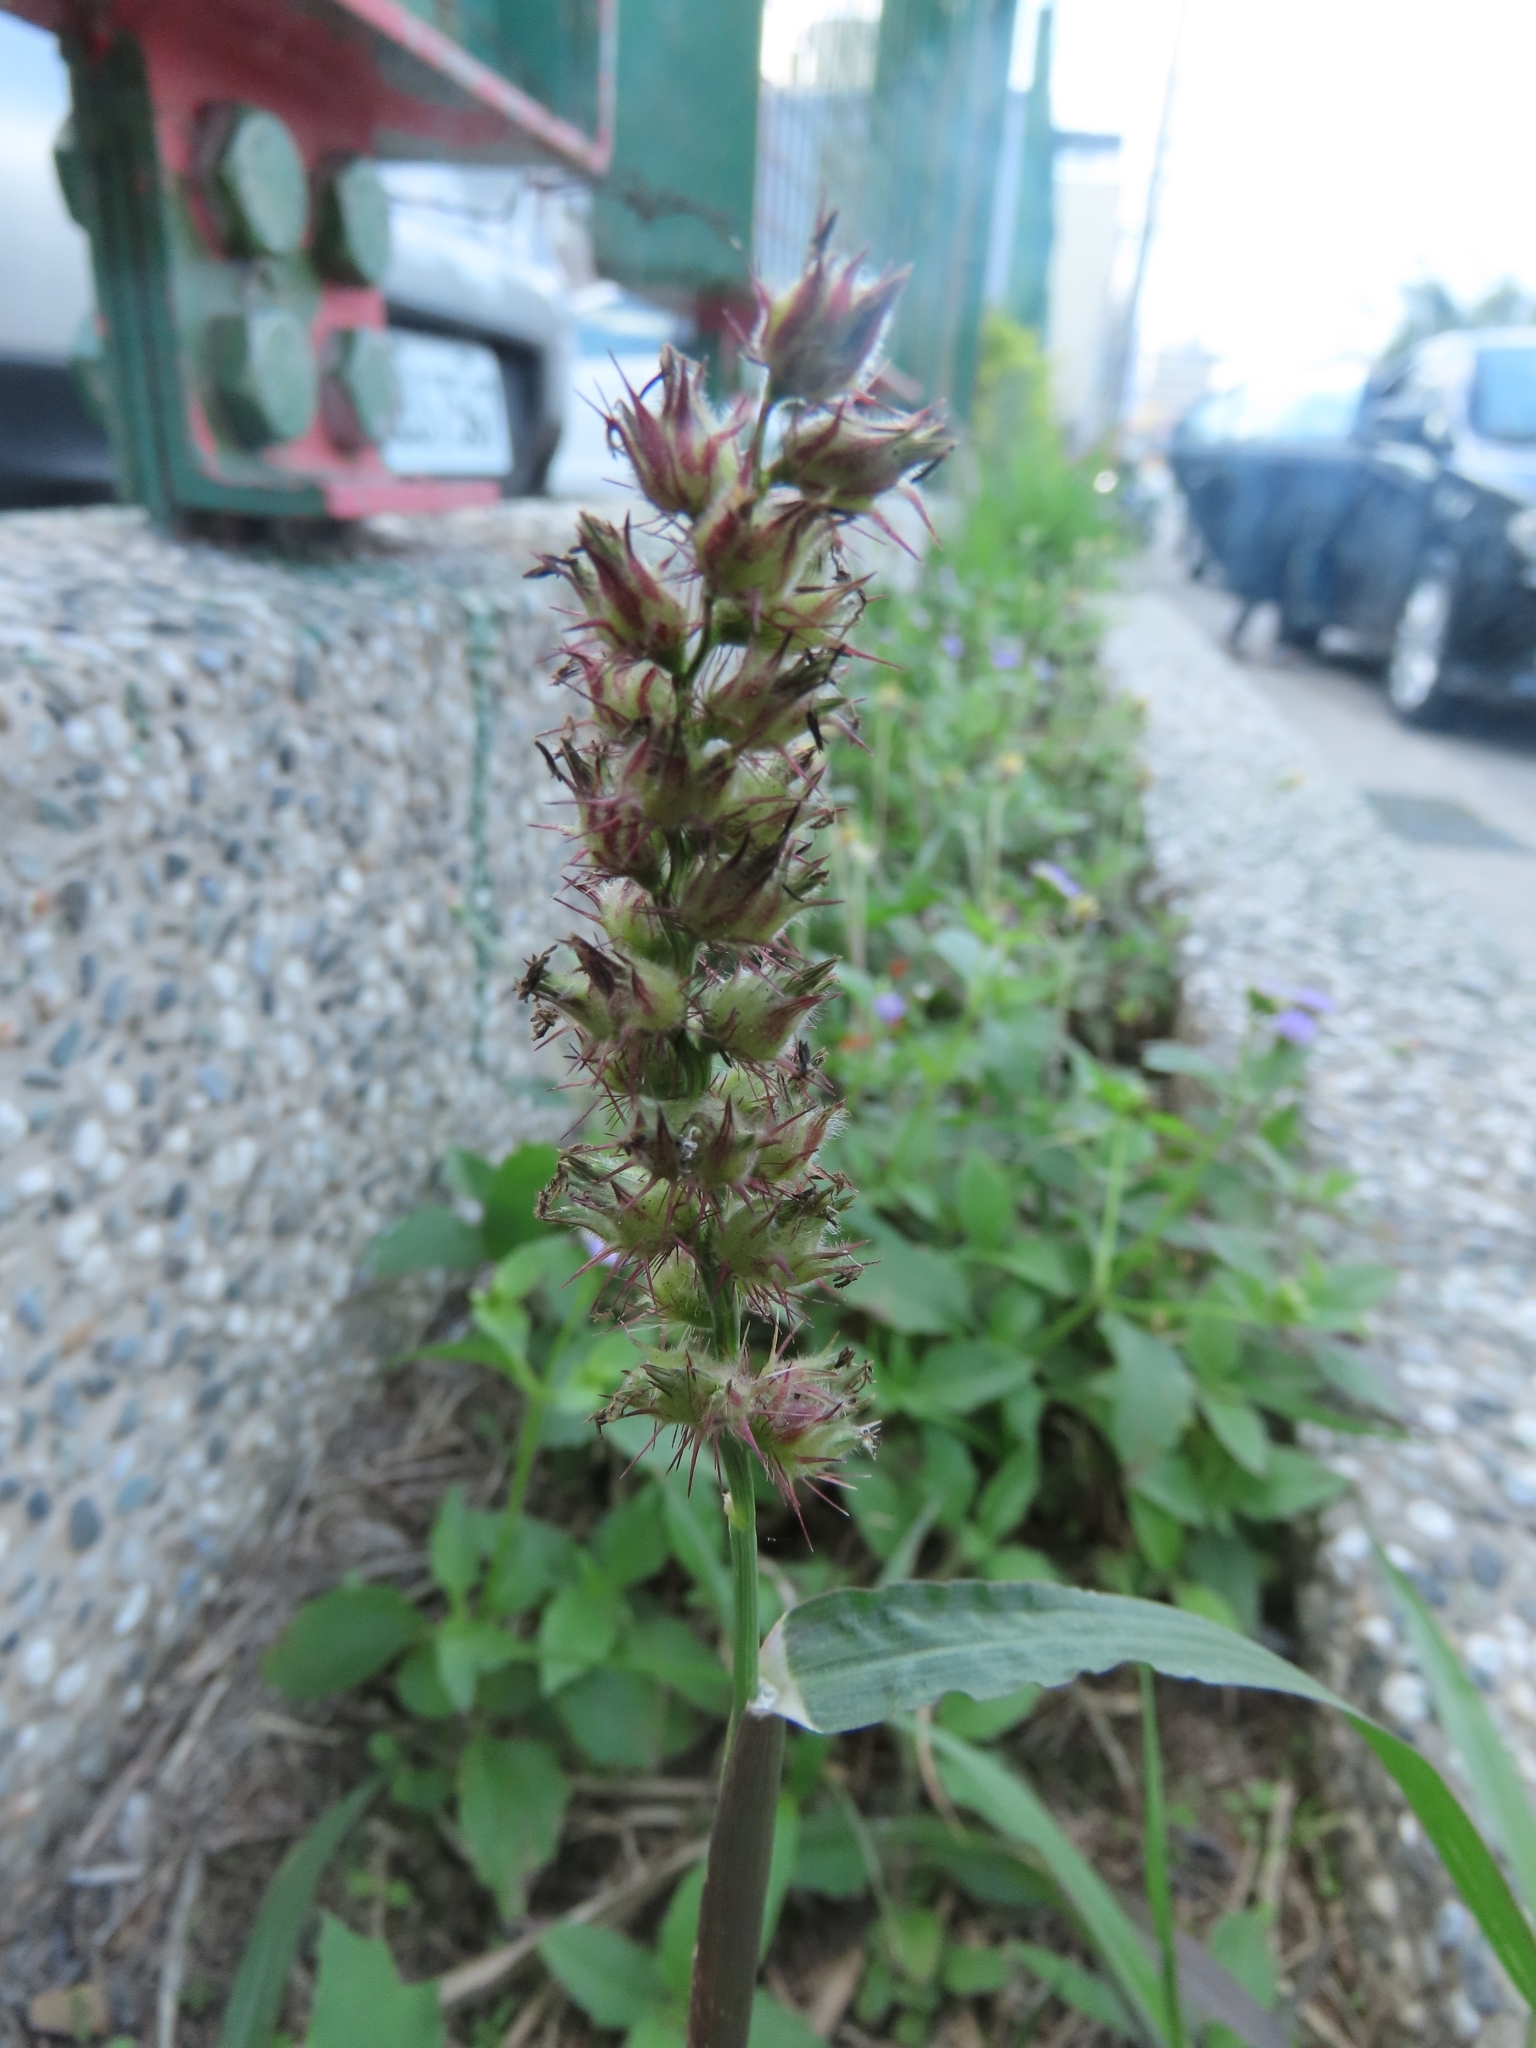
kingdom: Plantae
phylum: Tracheophyta
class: Liliopsida
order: Poales
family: Poaceae
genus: Cenchrus
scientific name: Cenchrus echinatus
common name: Southern sandbur
